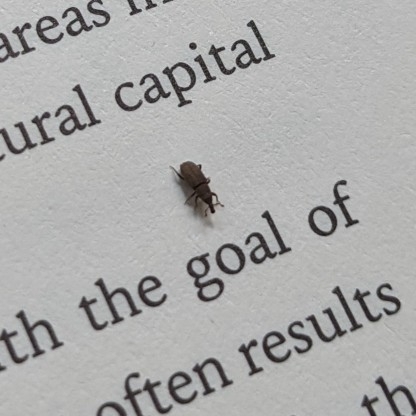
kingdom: Animalia
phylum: Arthropoda
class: Insecta
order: Coleoptera
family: Dryophthoridae
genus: Dryophthorus
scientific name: Dryophthorus americanus
